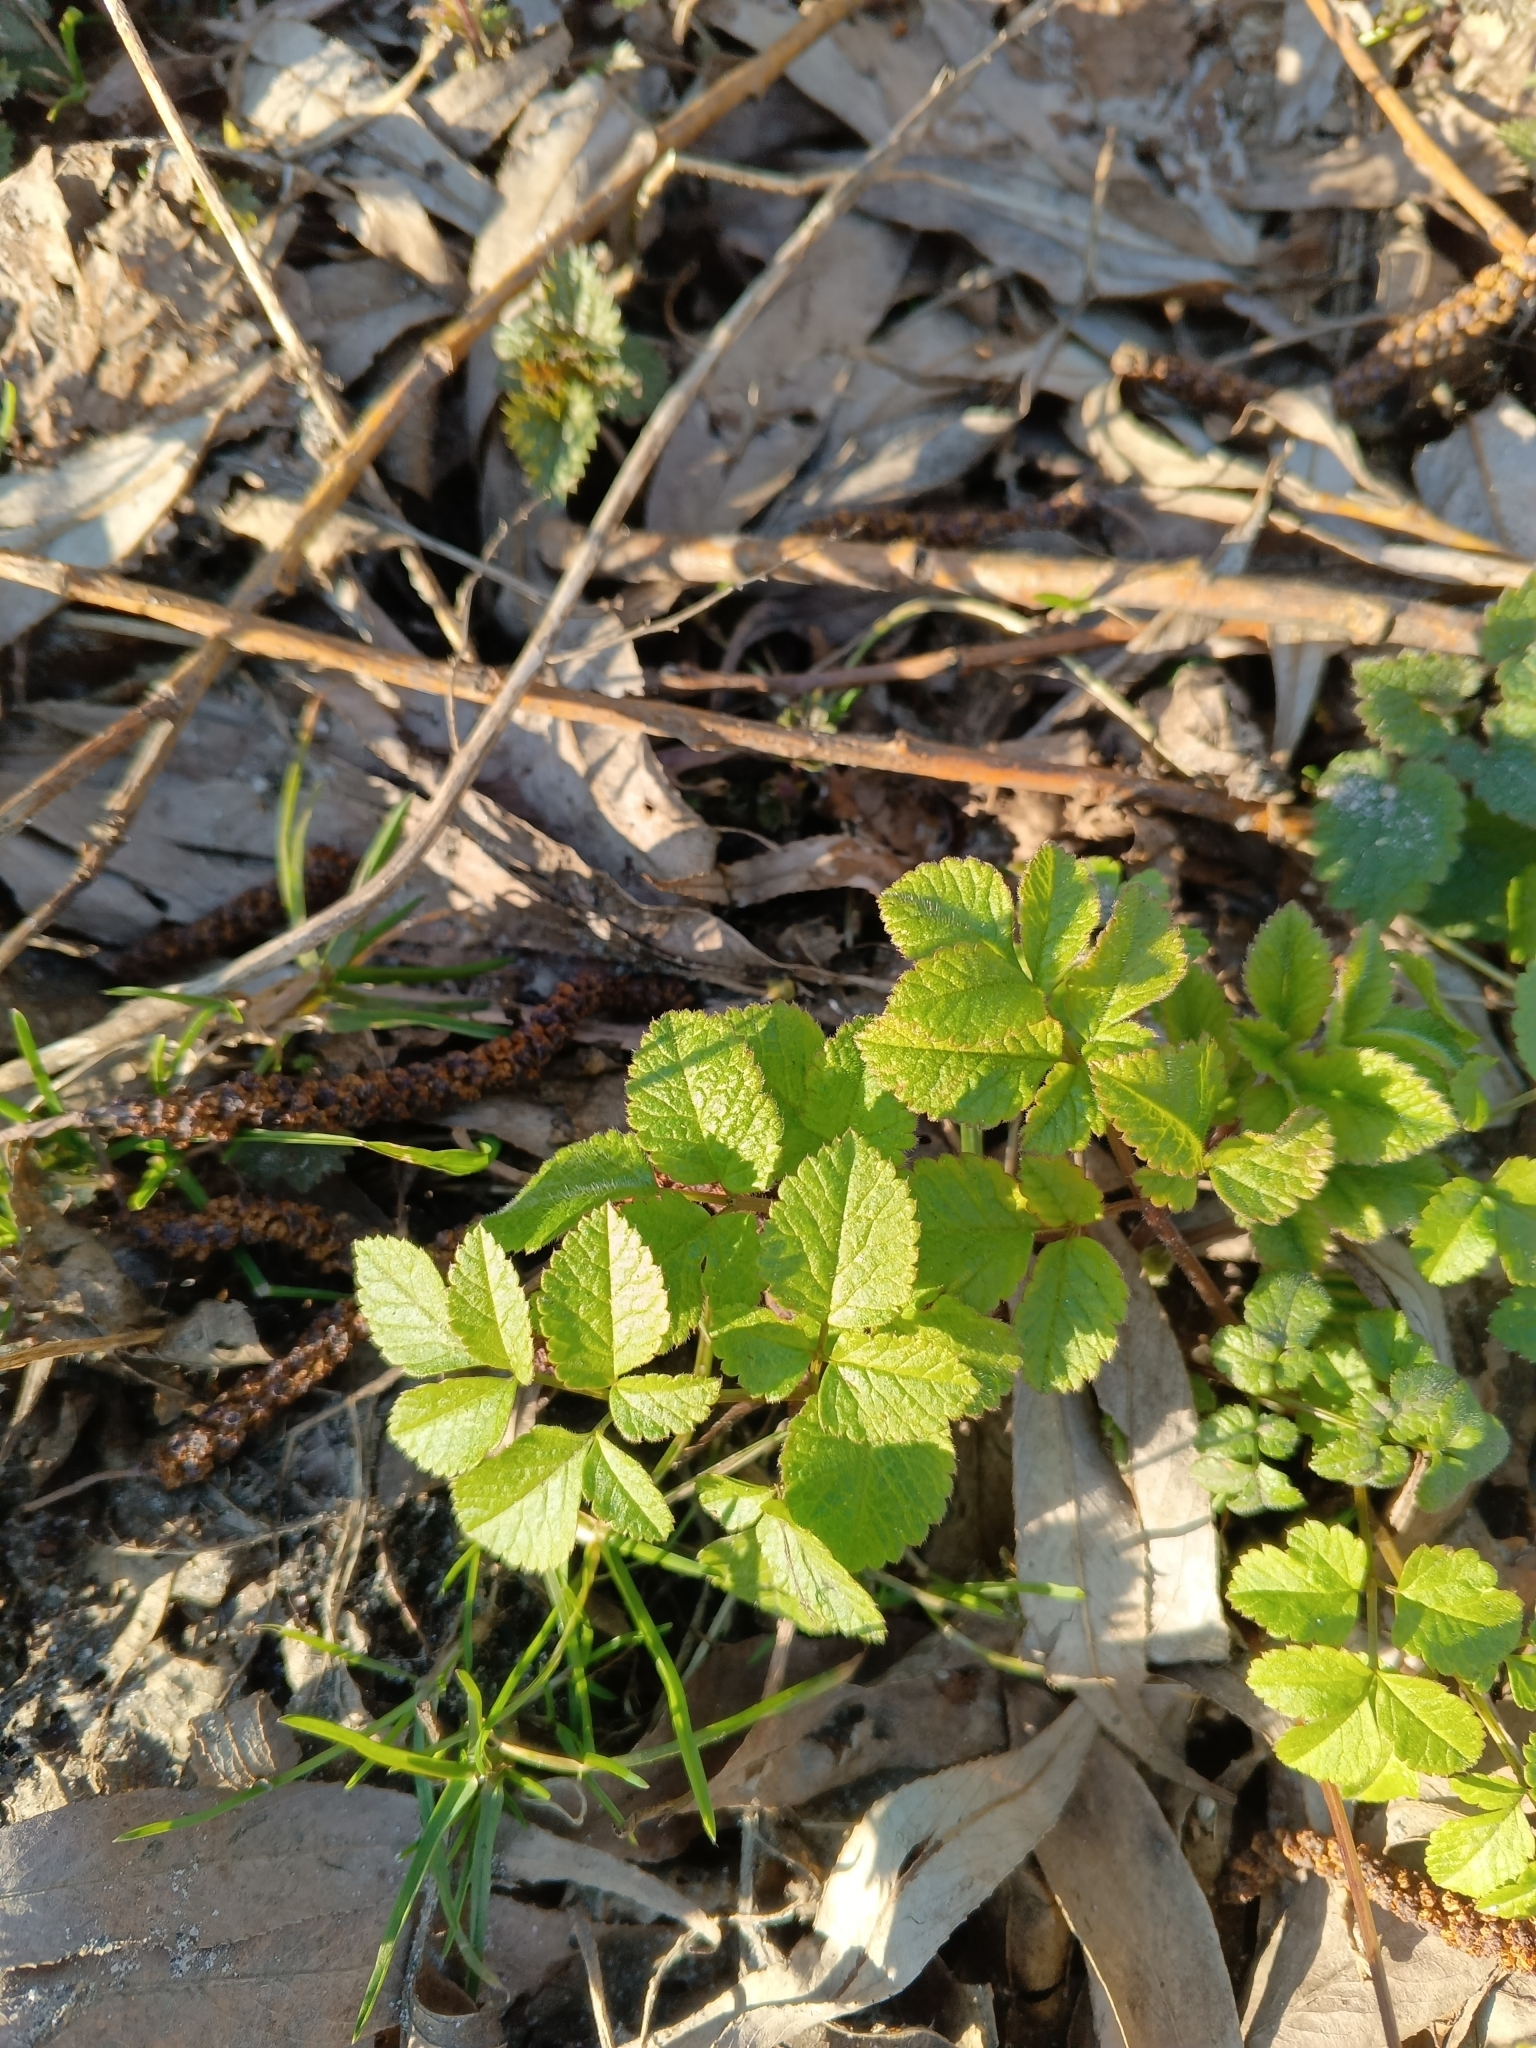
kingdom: Plantae
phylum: Tracheophyta
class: Magnoliopsida
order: Apiales
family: Apiaceae
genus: Chaerophyllum
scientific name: Chaerophyllum aromaticum
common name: Broadleaf chervil
